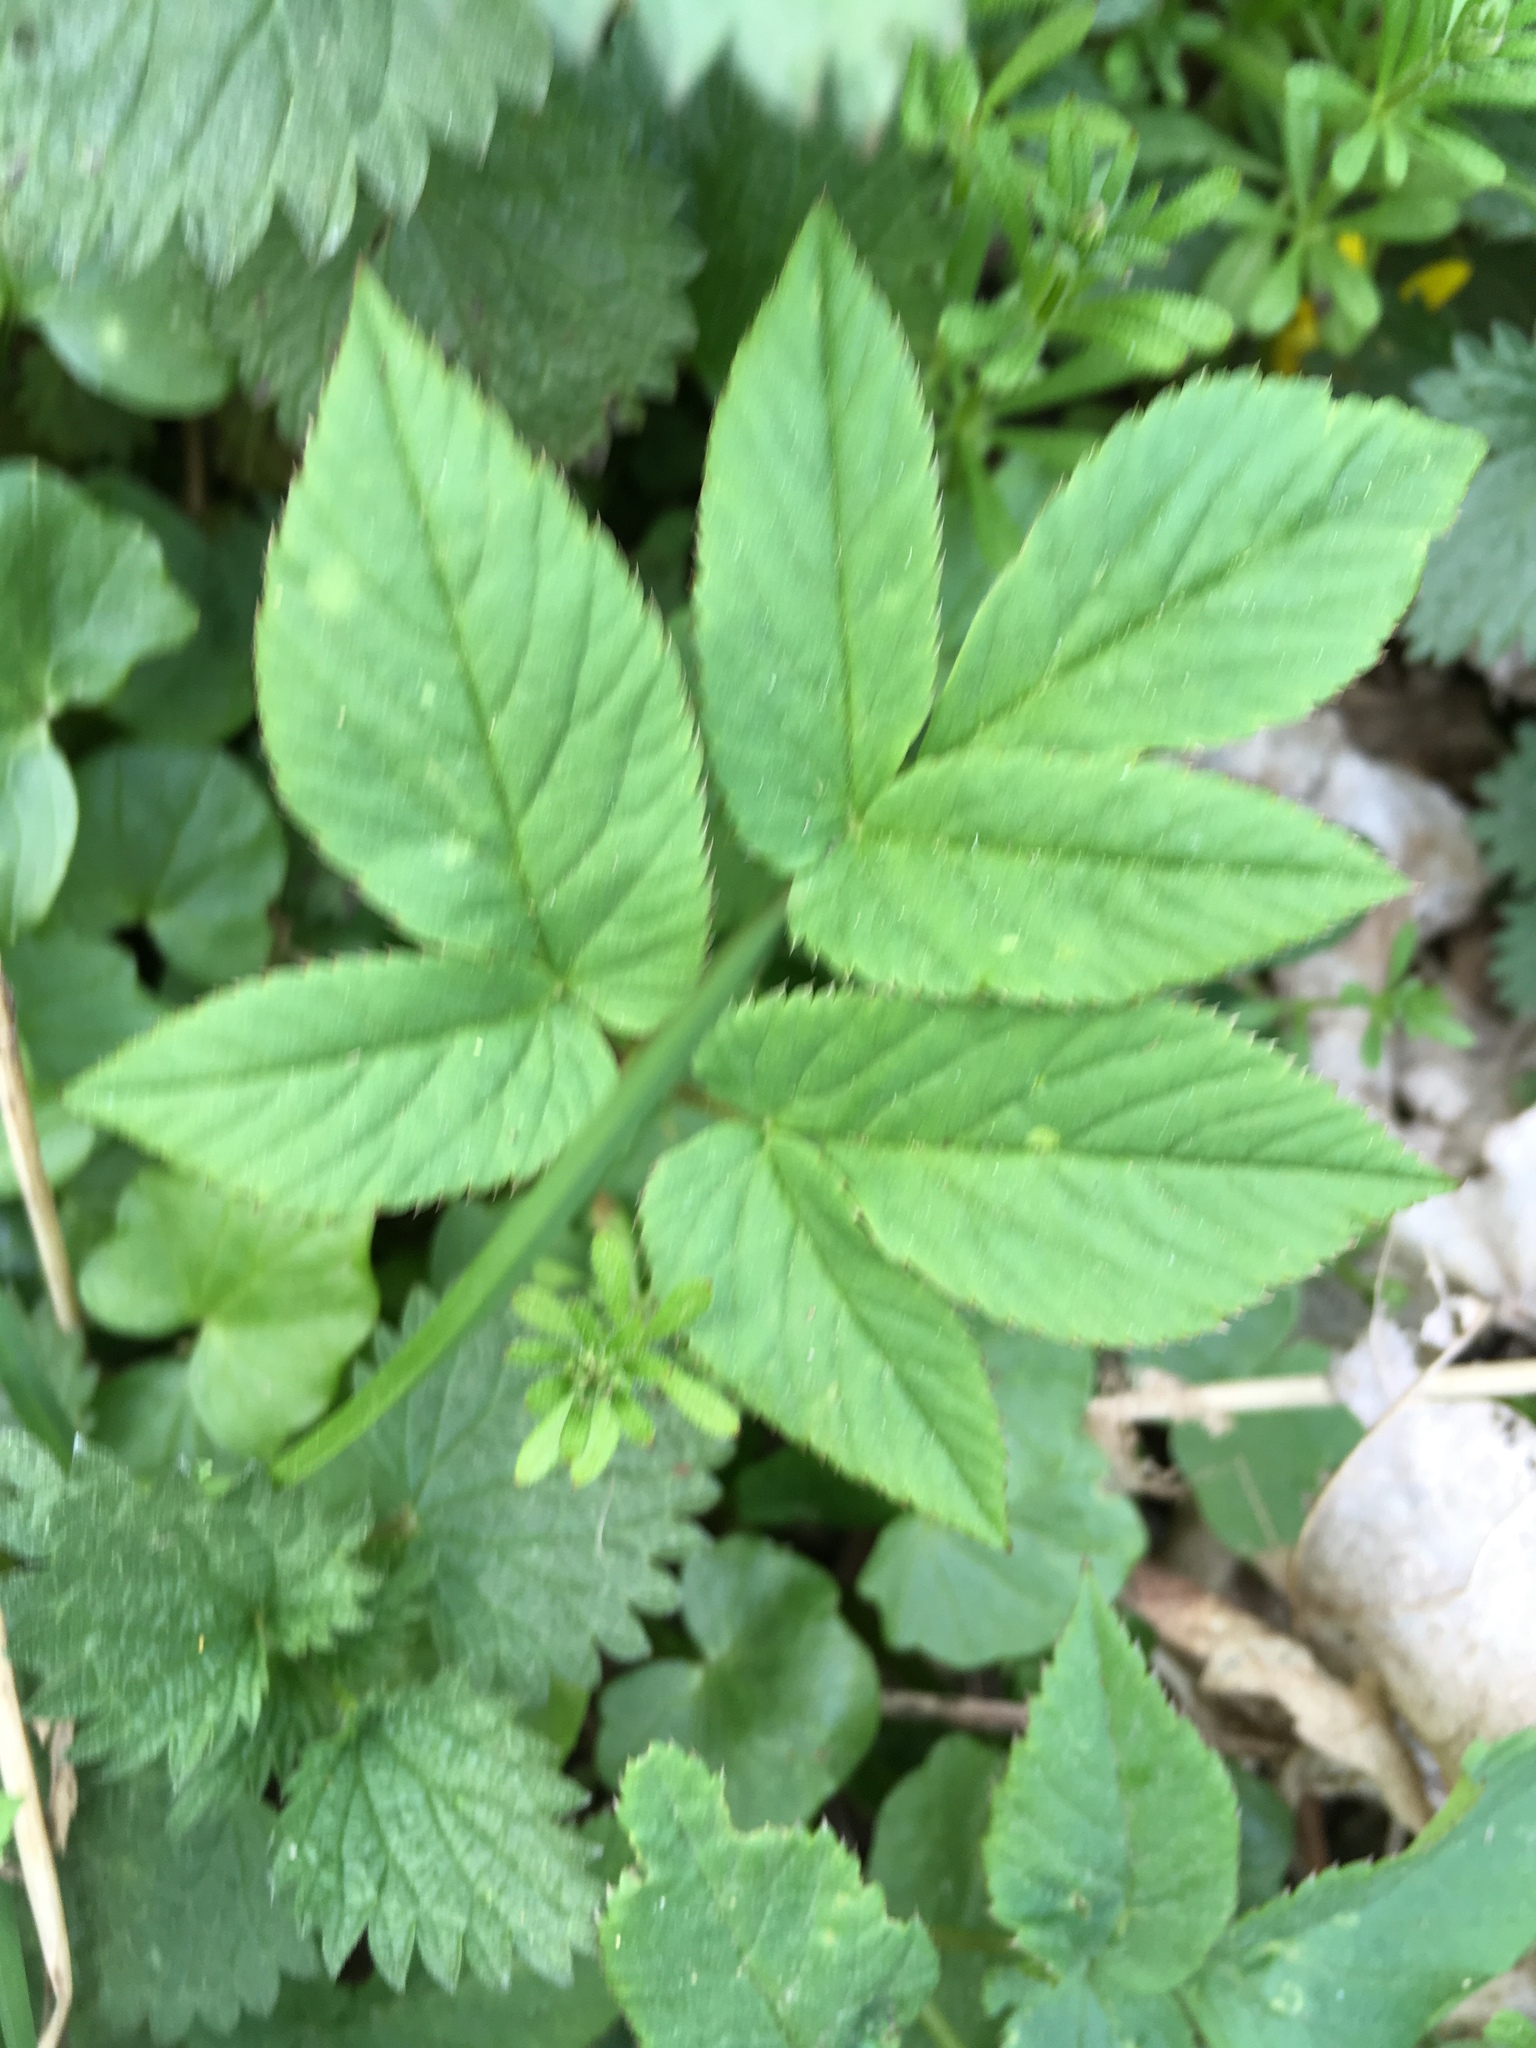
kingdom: Plantae
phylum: Tracheophyta
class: Magnoliopsida
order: Apiales
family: Apiaceae
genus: Aegopodium
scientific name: Aegopodium podagraria
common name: Ground-elder
